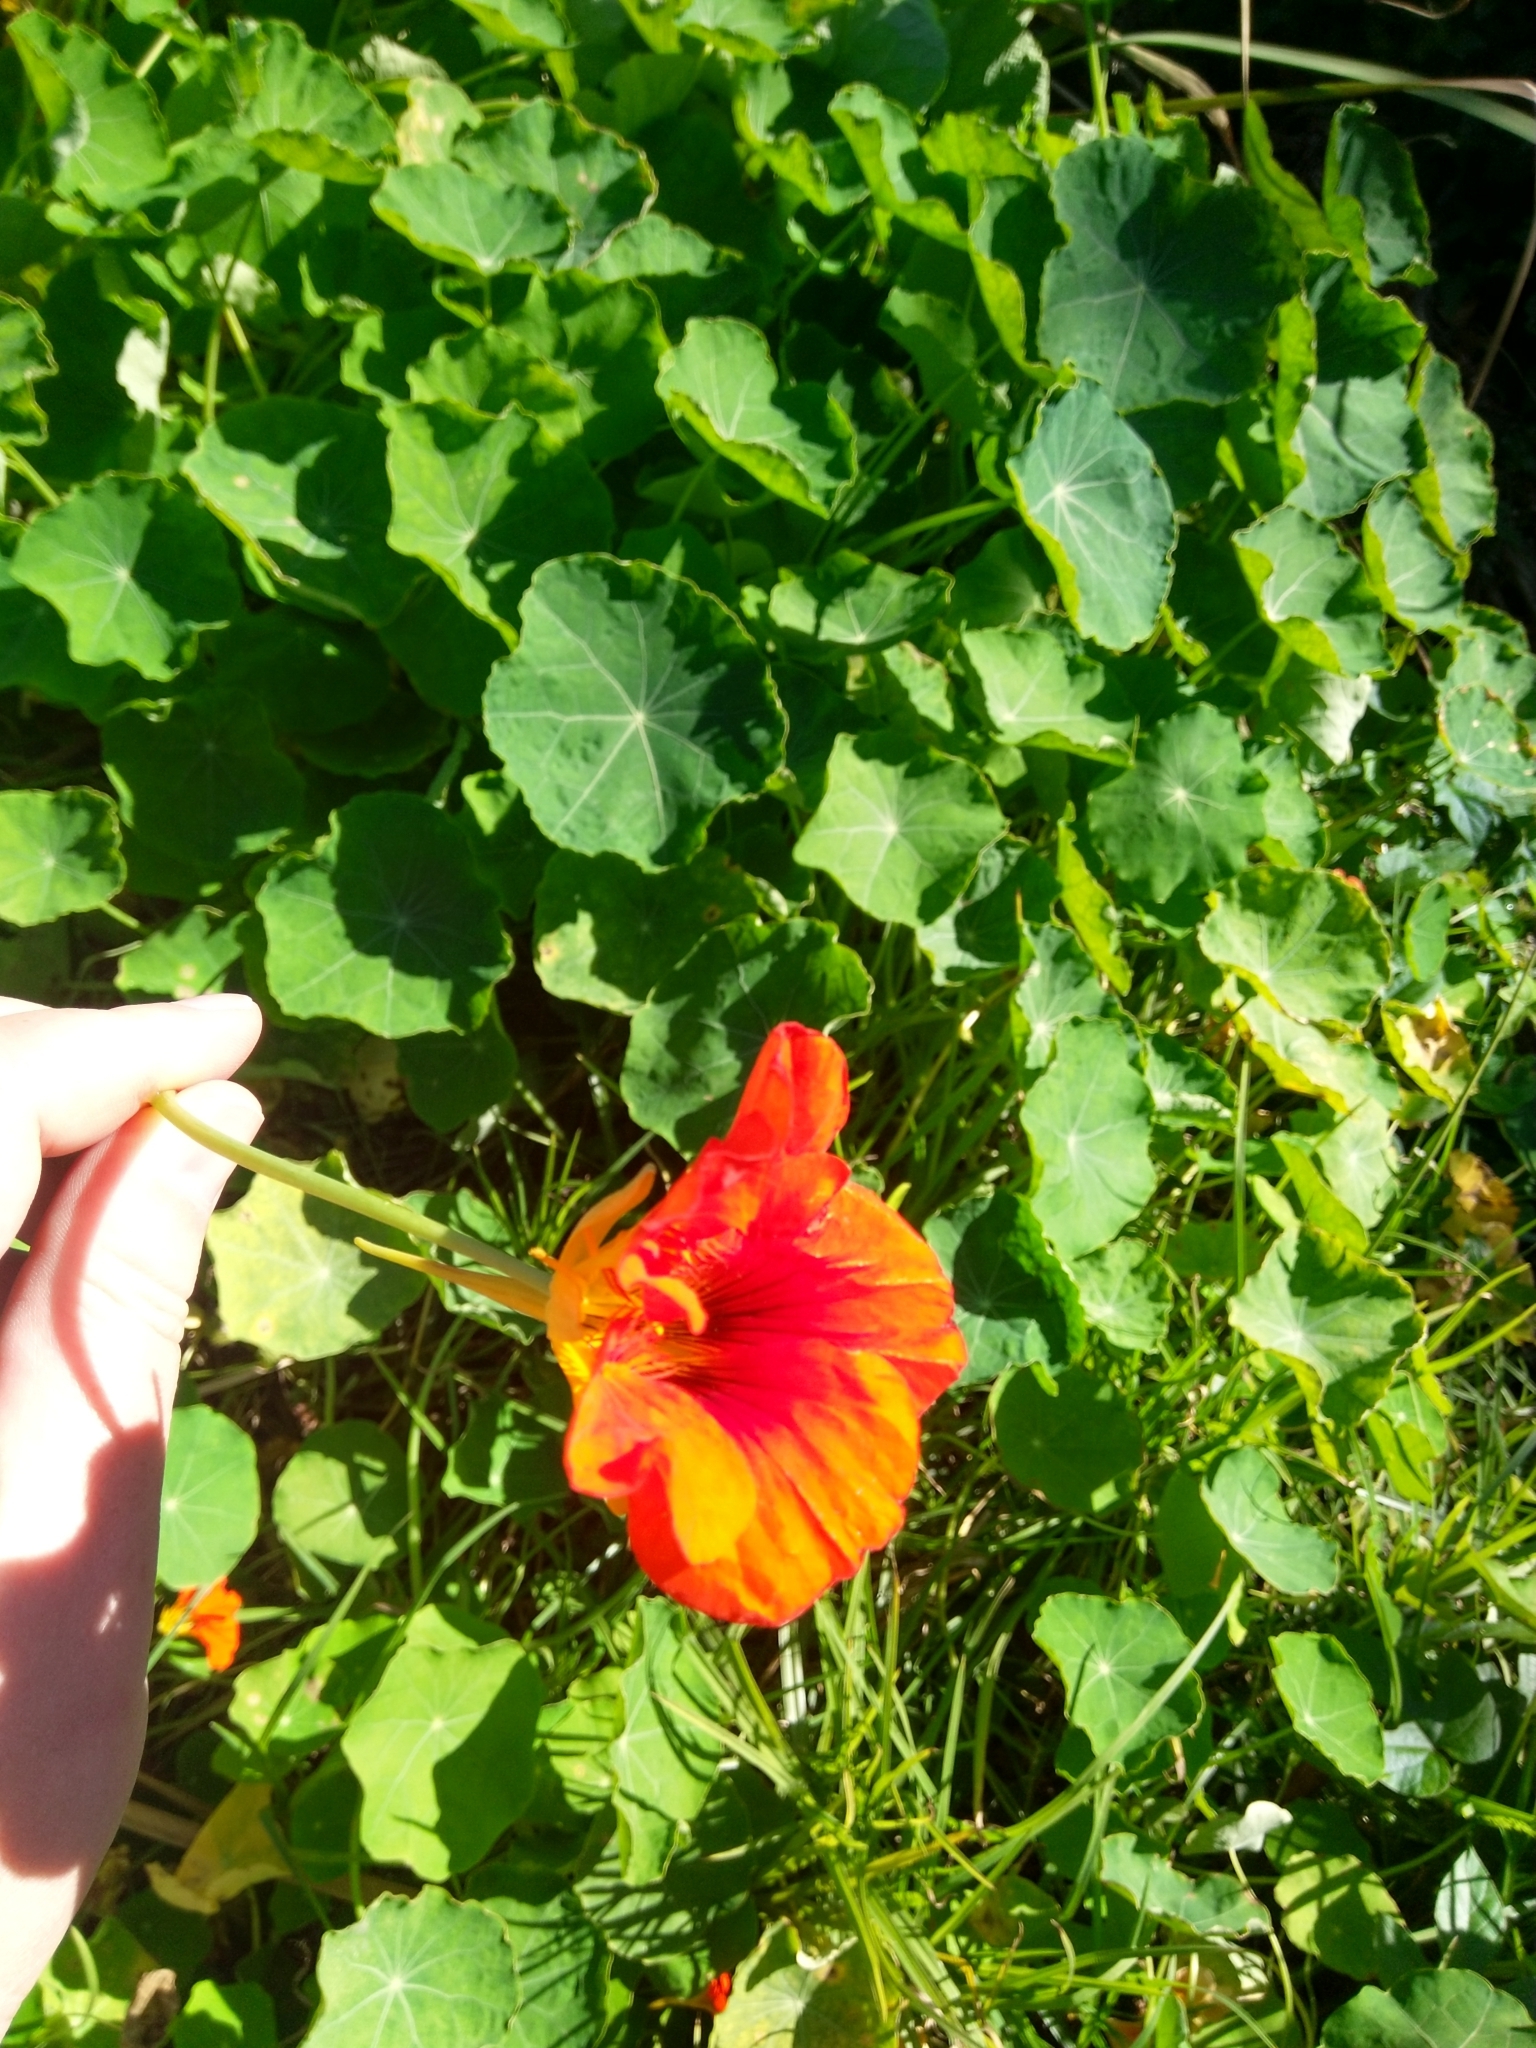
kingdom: Plantae
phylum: Tracheophyta
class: Magnoliopsida
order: Brassicales
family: Tropaeolaceae
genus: Tropaeolum
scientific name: Tropaeolum majus
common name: Nasturtium
